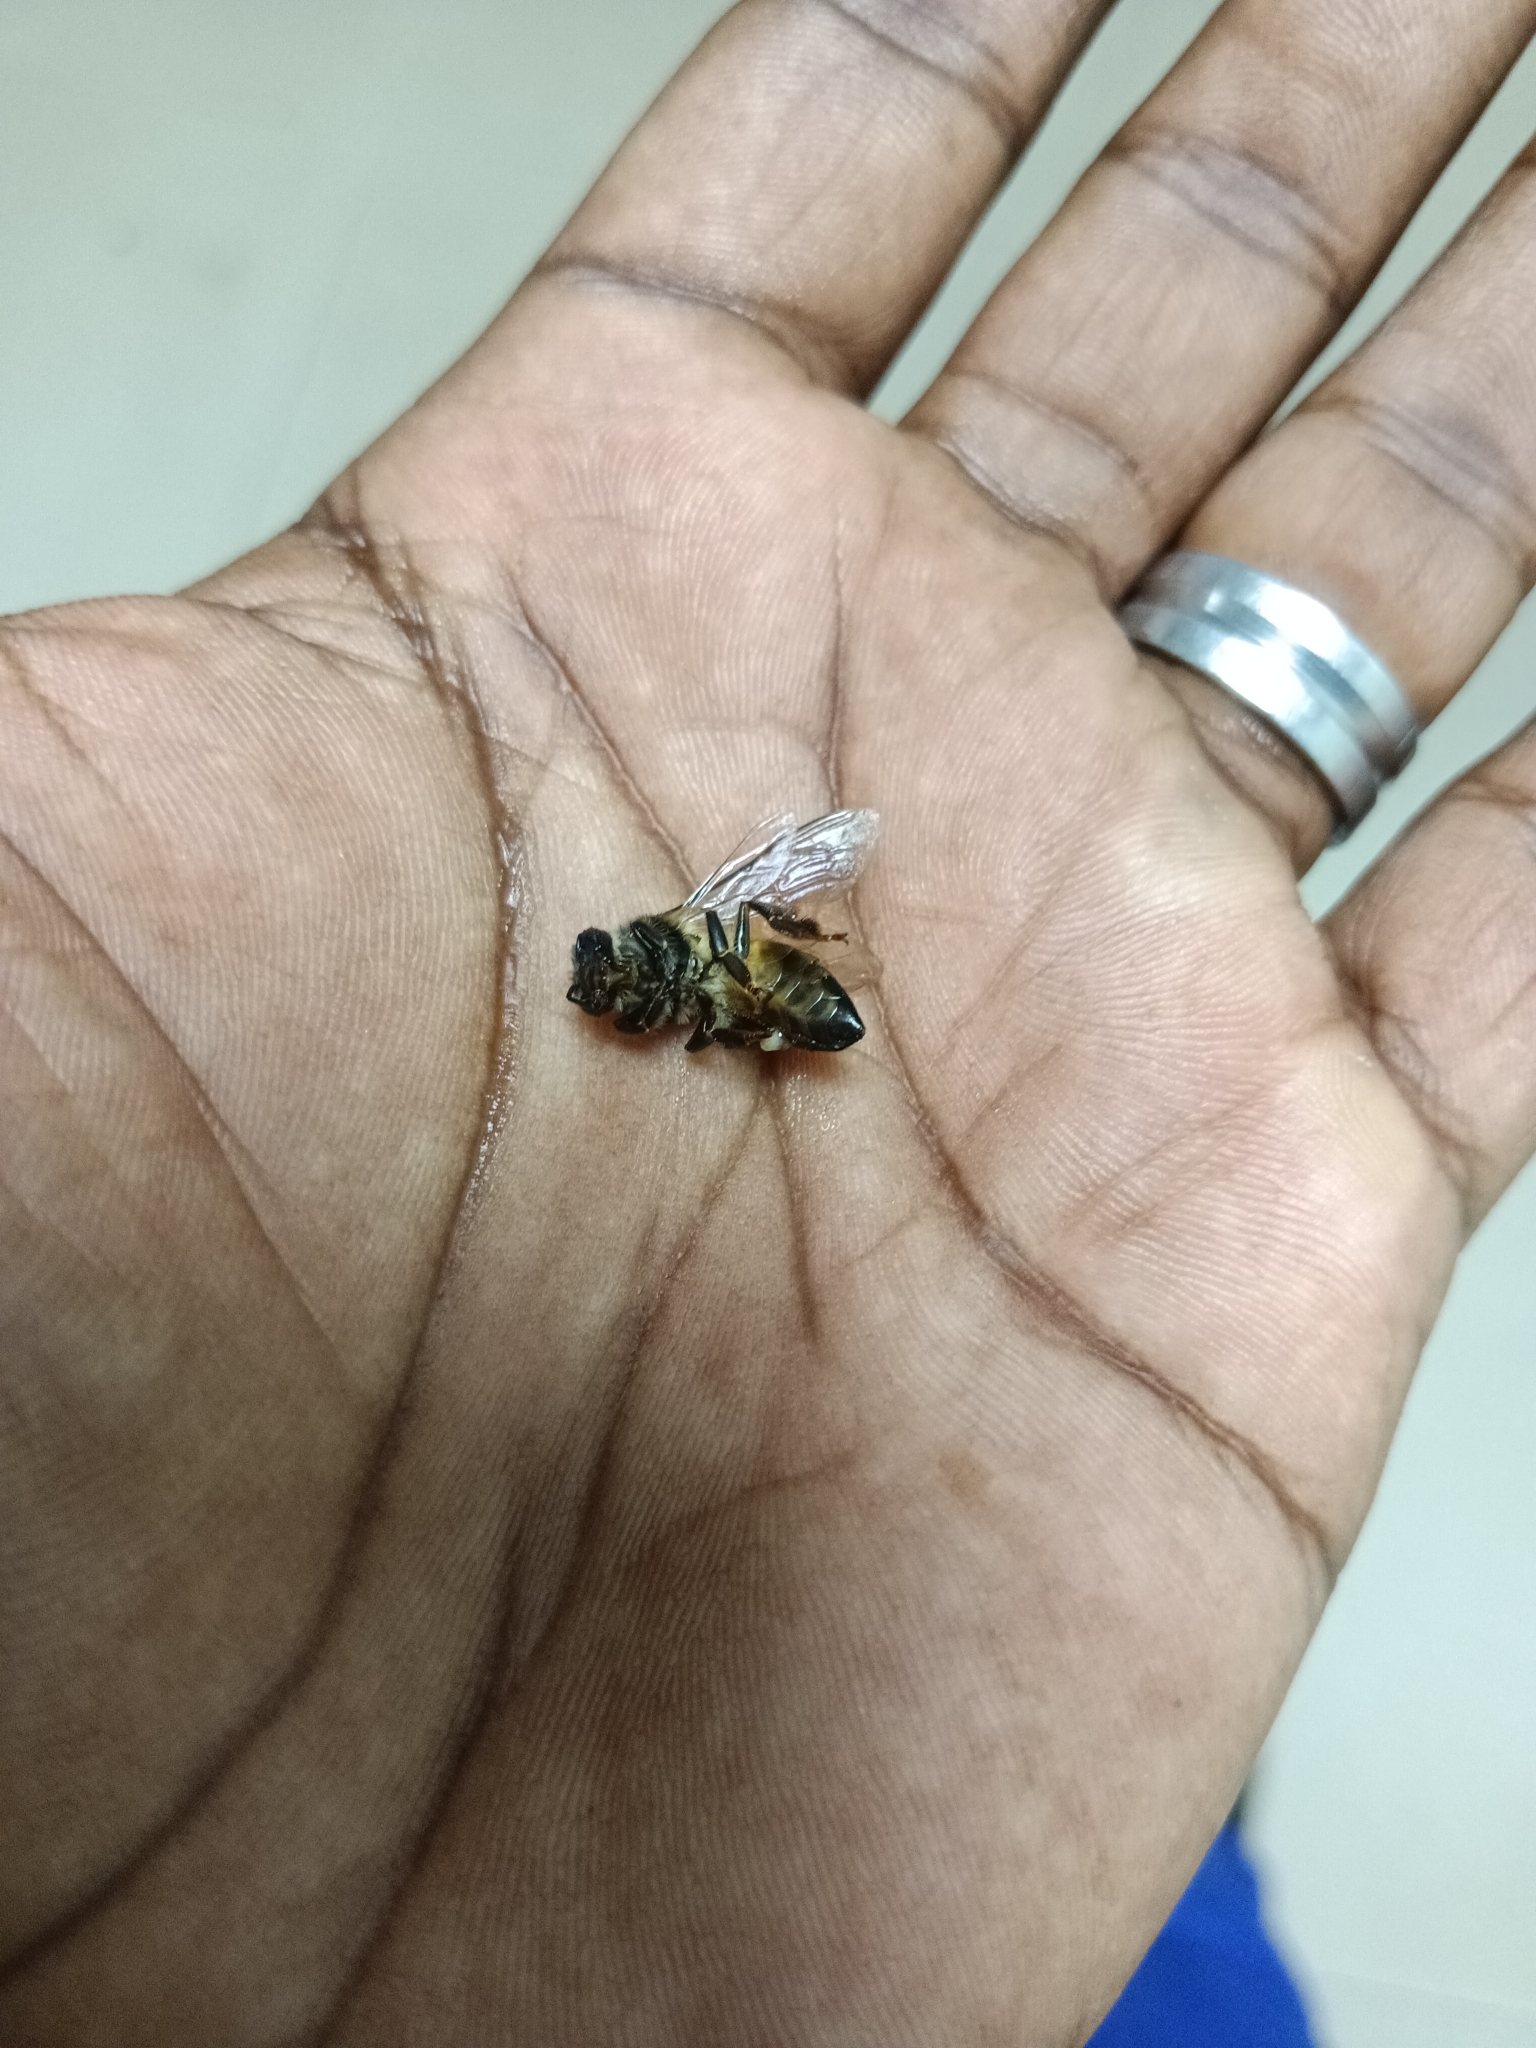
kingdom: Animalia
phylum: Arthropoda
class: Insecta
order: Hymenoptera
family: Apidae
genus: Apis
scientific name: Apis dorsata
